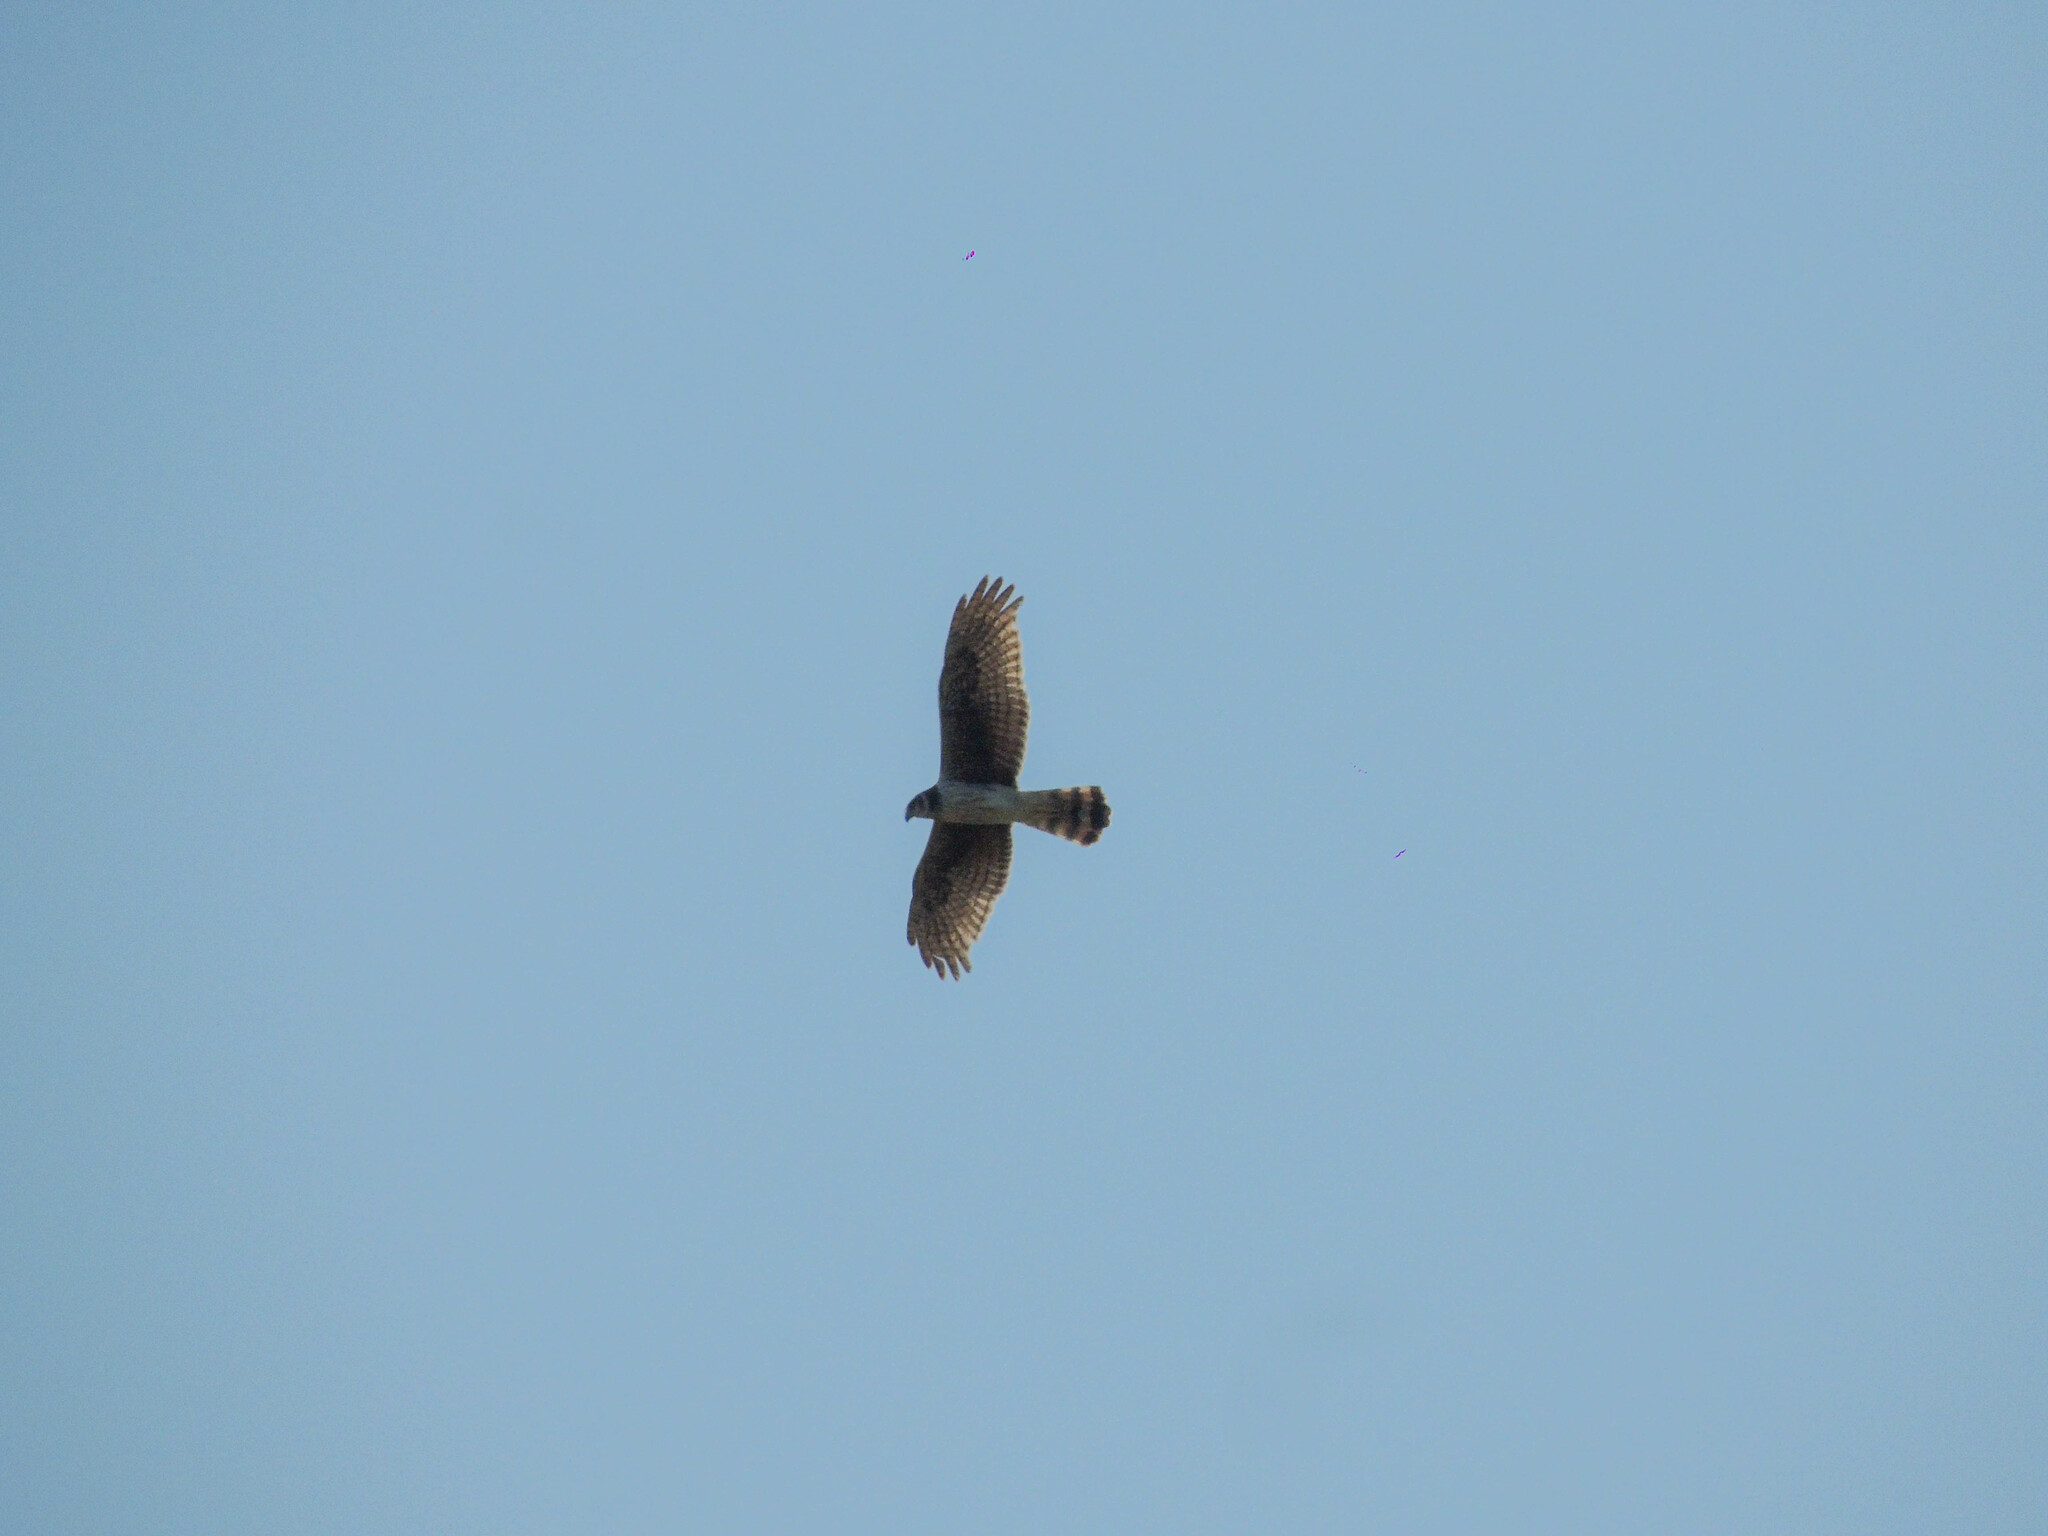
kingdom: Animalia
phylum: Chordata
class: Aves
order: Accipitriformes
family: Accipitridae
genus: Circus
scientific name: Circus buffoni
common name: Long-winged harrier
